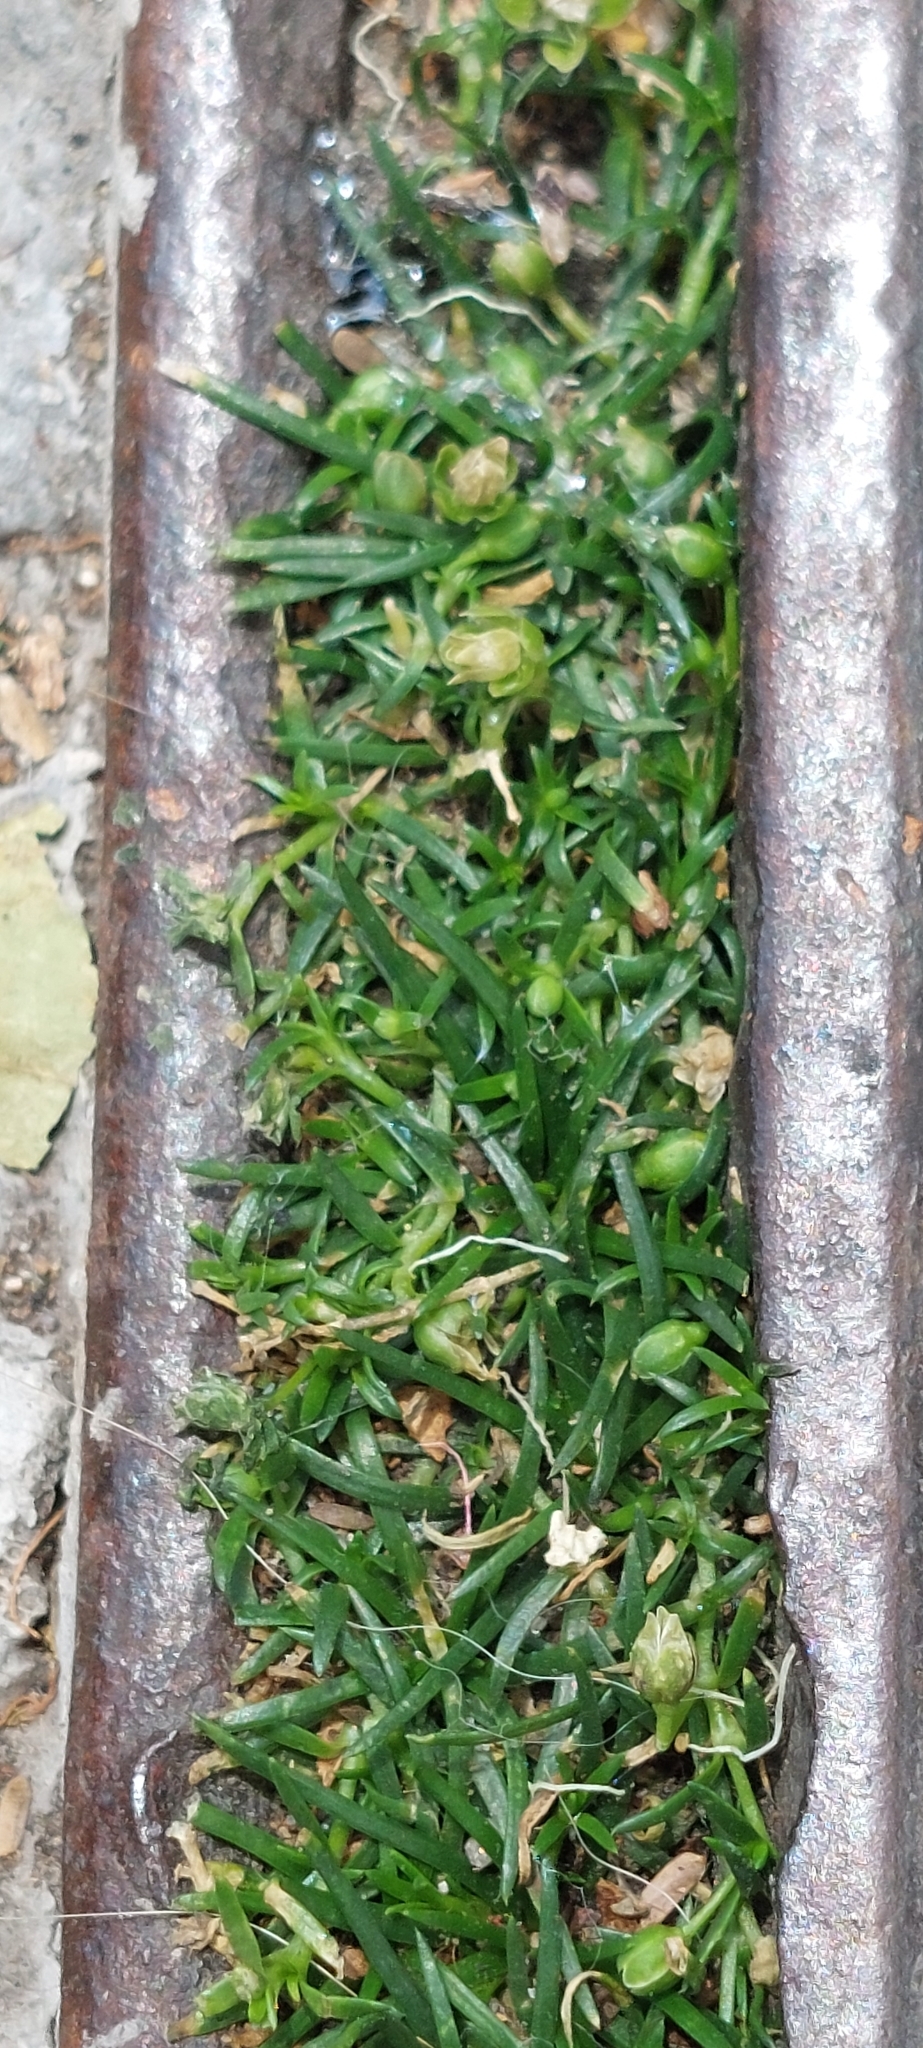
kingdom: Plantae
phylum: Tracheophyta
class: Magnoliopsida
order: Caryophyllales
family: Caryophyllaceae
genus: Sagina
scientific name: Sagina procumbens
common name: Procumbent pearlwort
